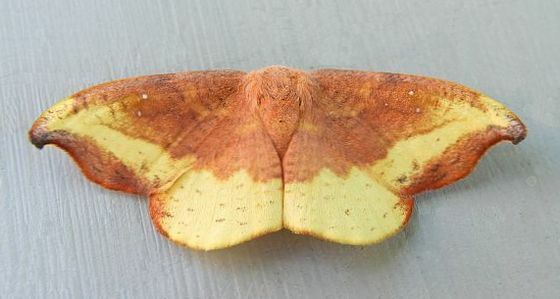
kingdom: Animalia
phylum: Arthropoda
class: Insecta
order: Lepidoptera
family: Drepanidae
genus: Oreta
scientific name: Oreta rosea
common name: Rose hooktip
